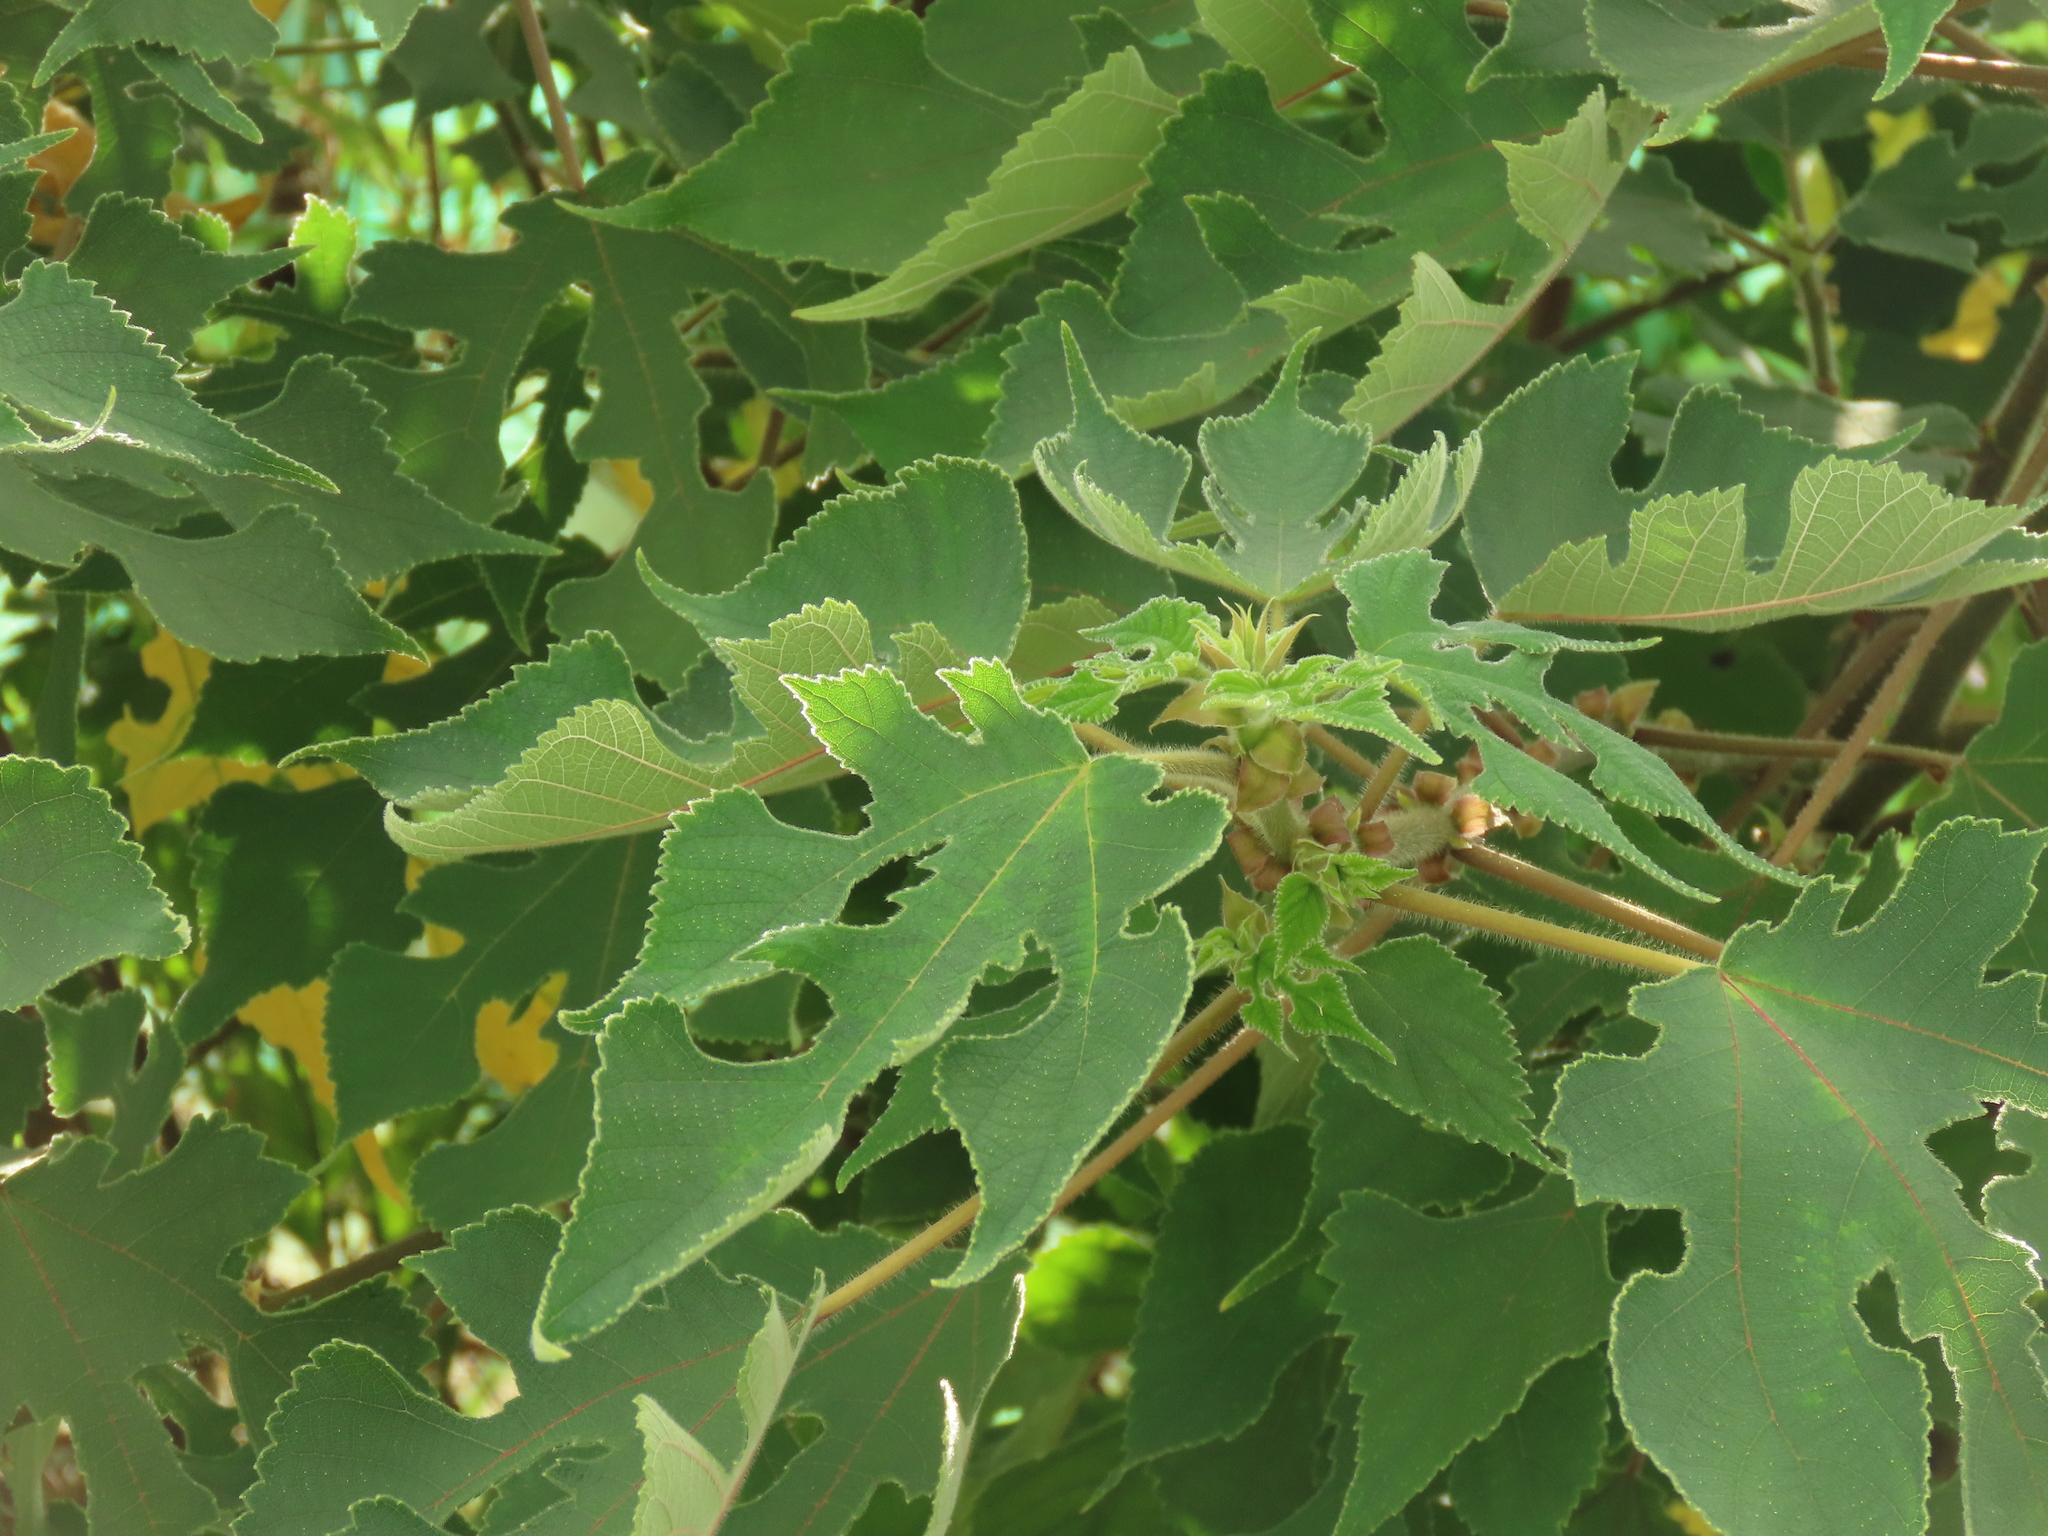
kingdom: Plantae
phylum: Tracheophyta
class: Magnoliopsida
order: Rosales
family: Moraceae
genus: Broussonetia
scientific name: Broussonetia papyrifera
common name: Paper mulberry
